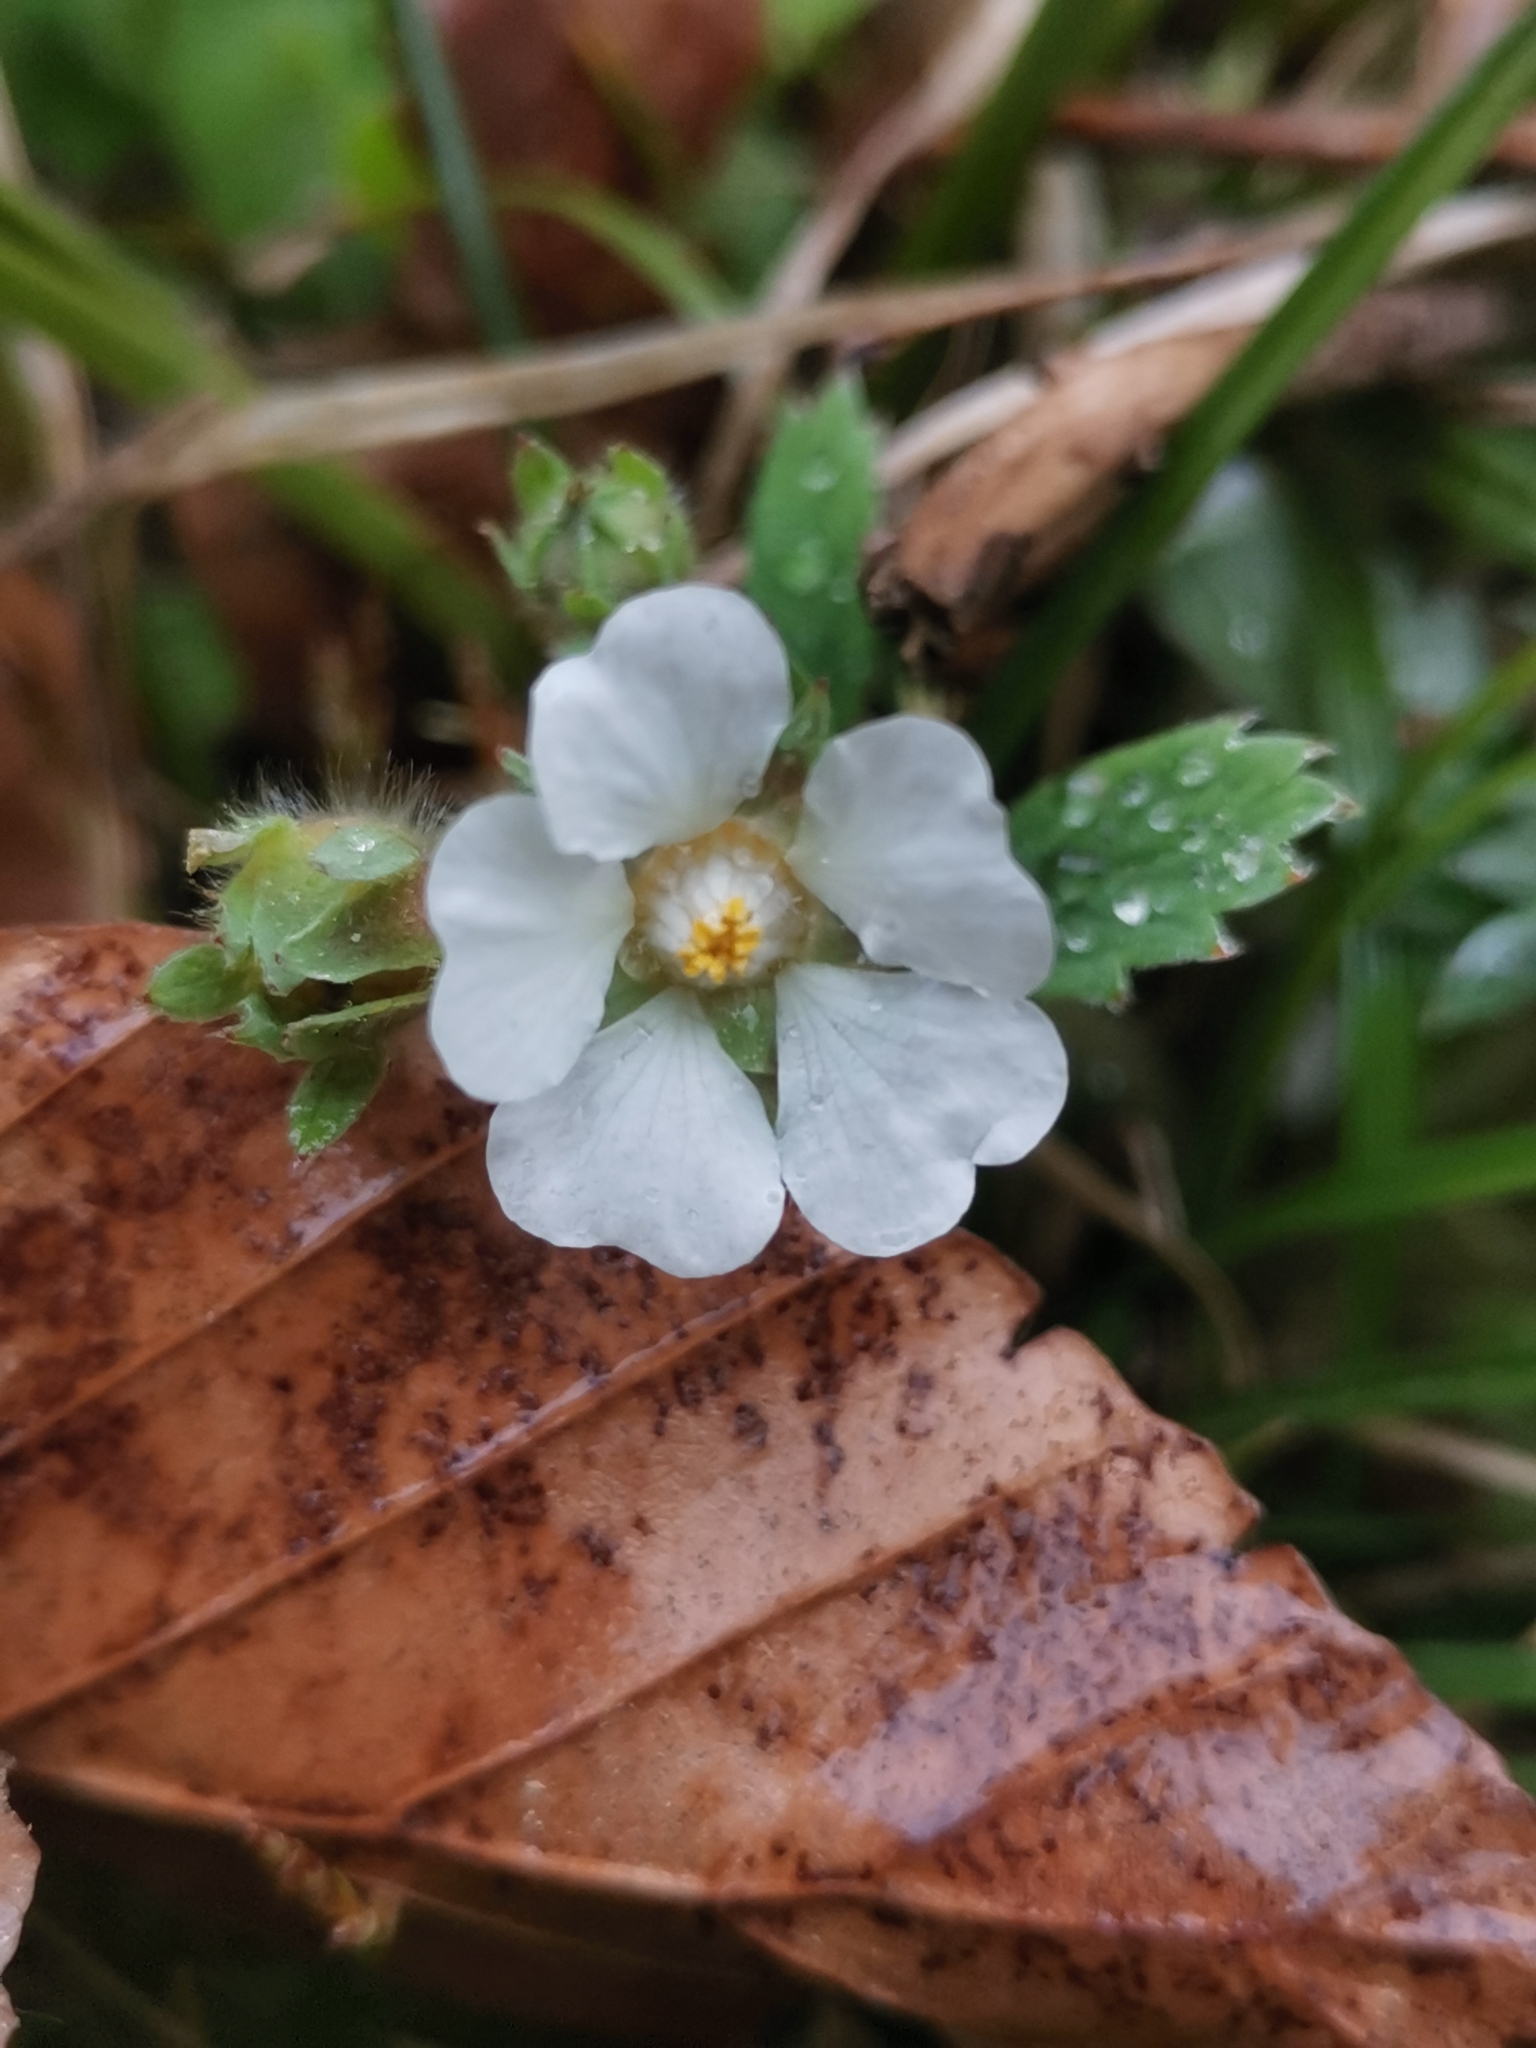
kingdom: Plantae
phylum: Tracheophyta
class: Magnoliopsida
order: Rosales
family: Rosaceae
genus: Potentilla
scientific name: Potentilla carniolica
